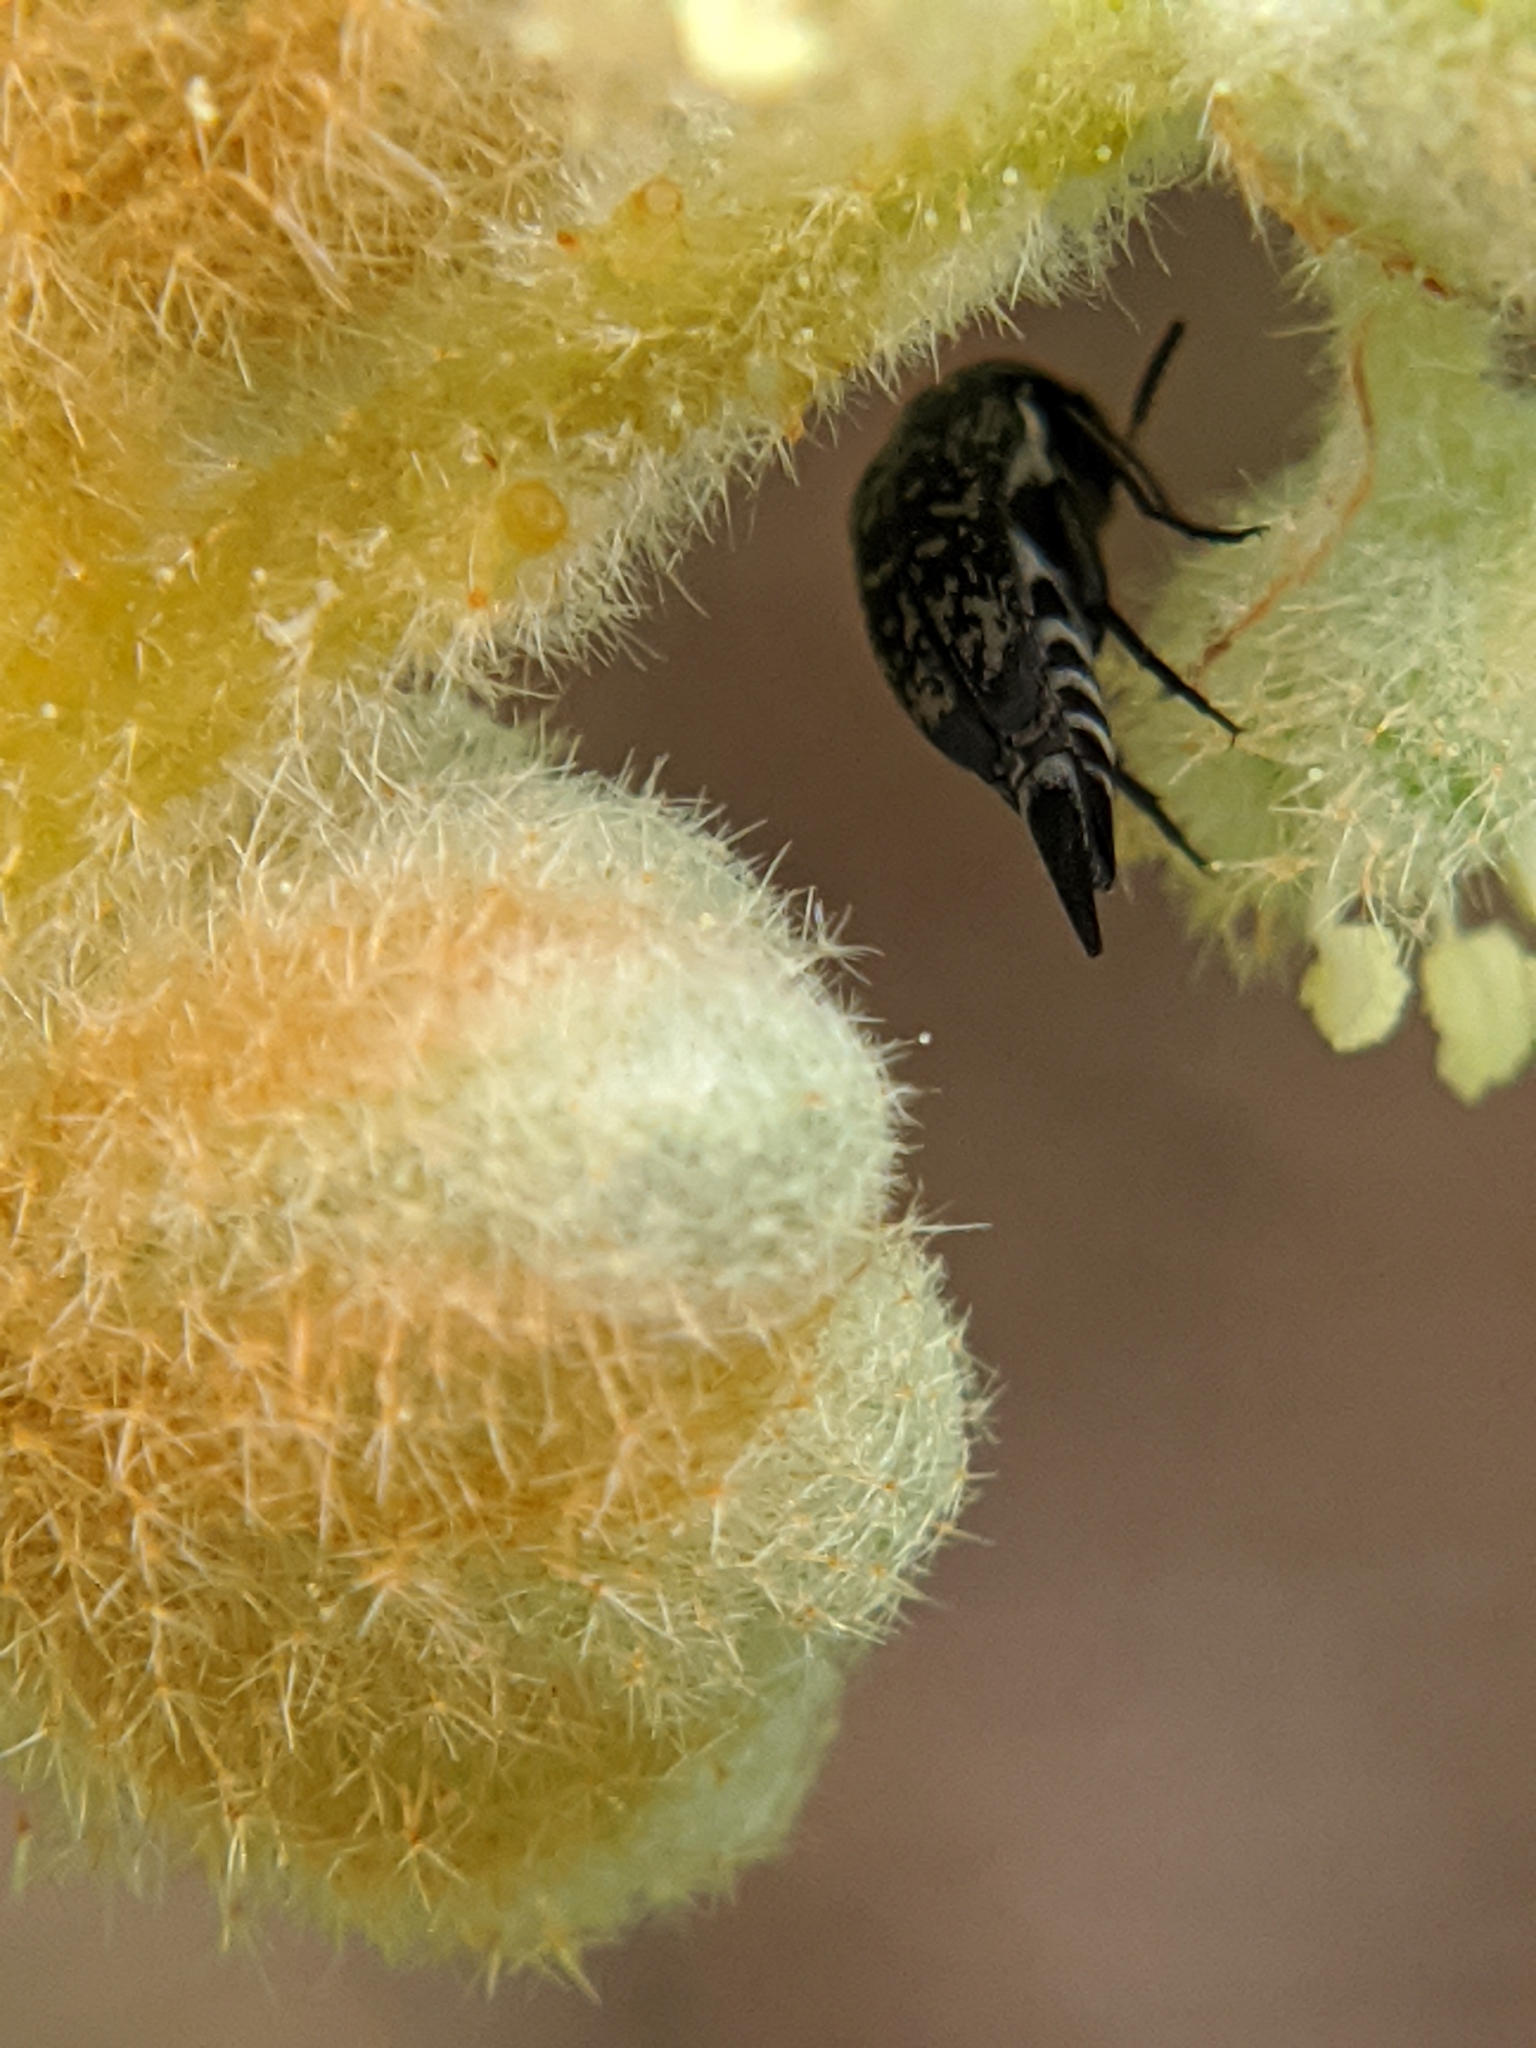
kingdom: Animalia
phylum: Arthropoda
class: Insecta
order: Coleoptera
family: Mordellidae
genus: Mordella
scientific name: Mordella marginata
